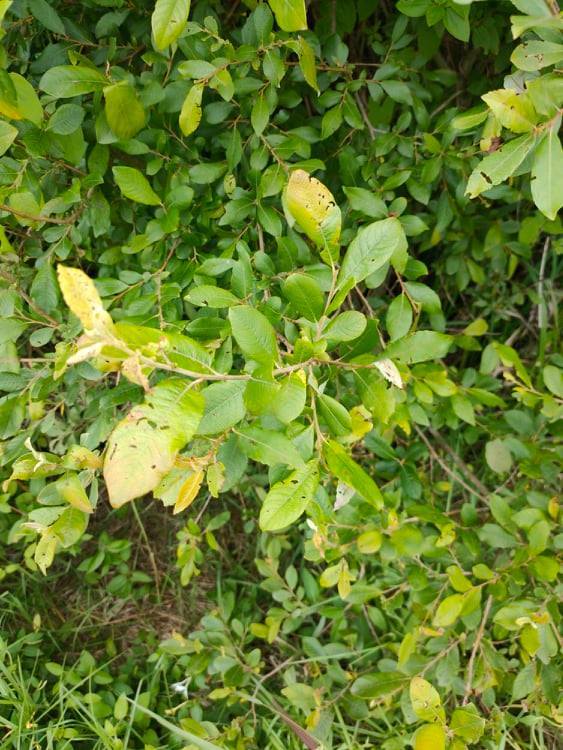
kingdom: Plantae
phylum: Tracheophyta
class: Magnoliopsida
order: Malpighiales
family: Salicaceae
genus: Salix
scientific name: Salix cinerea
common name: Common sallow
